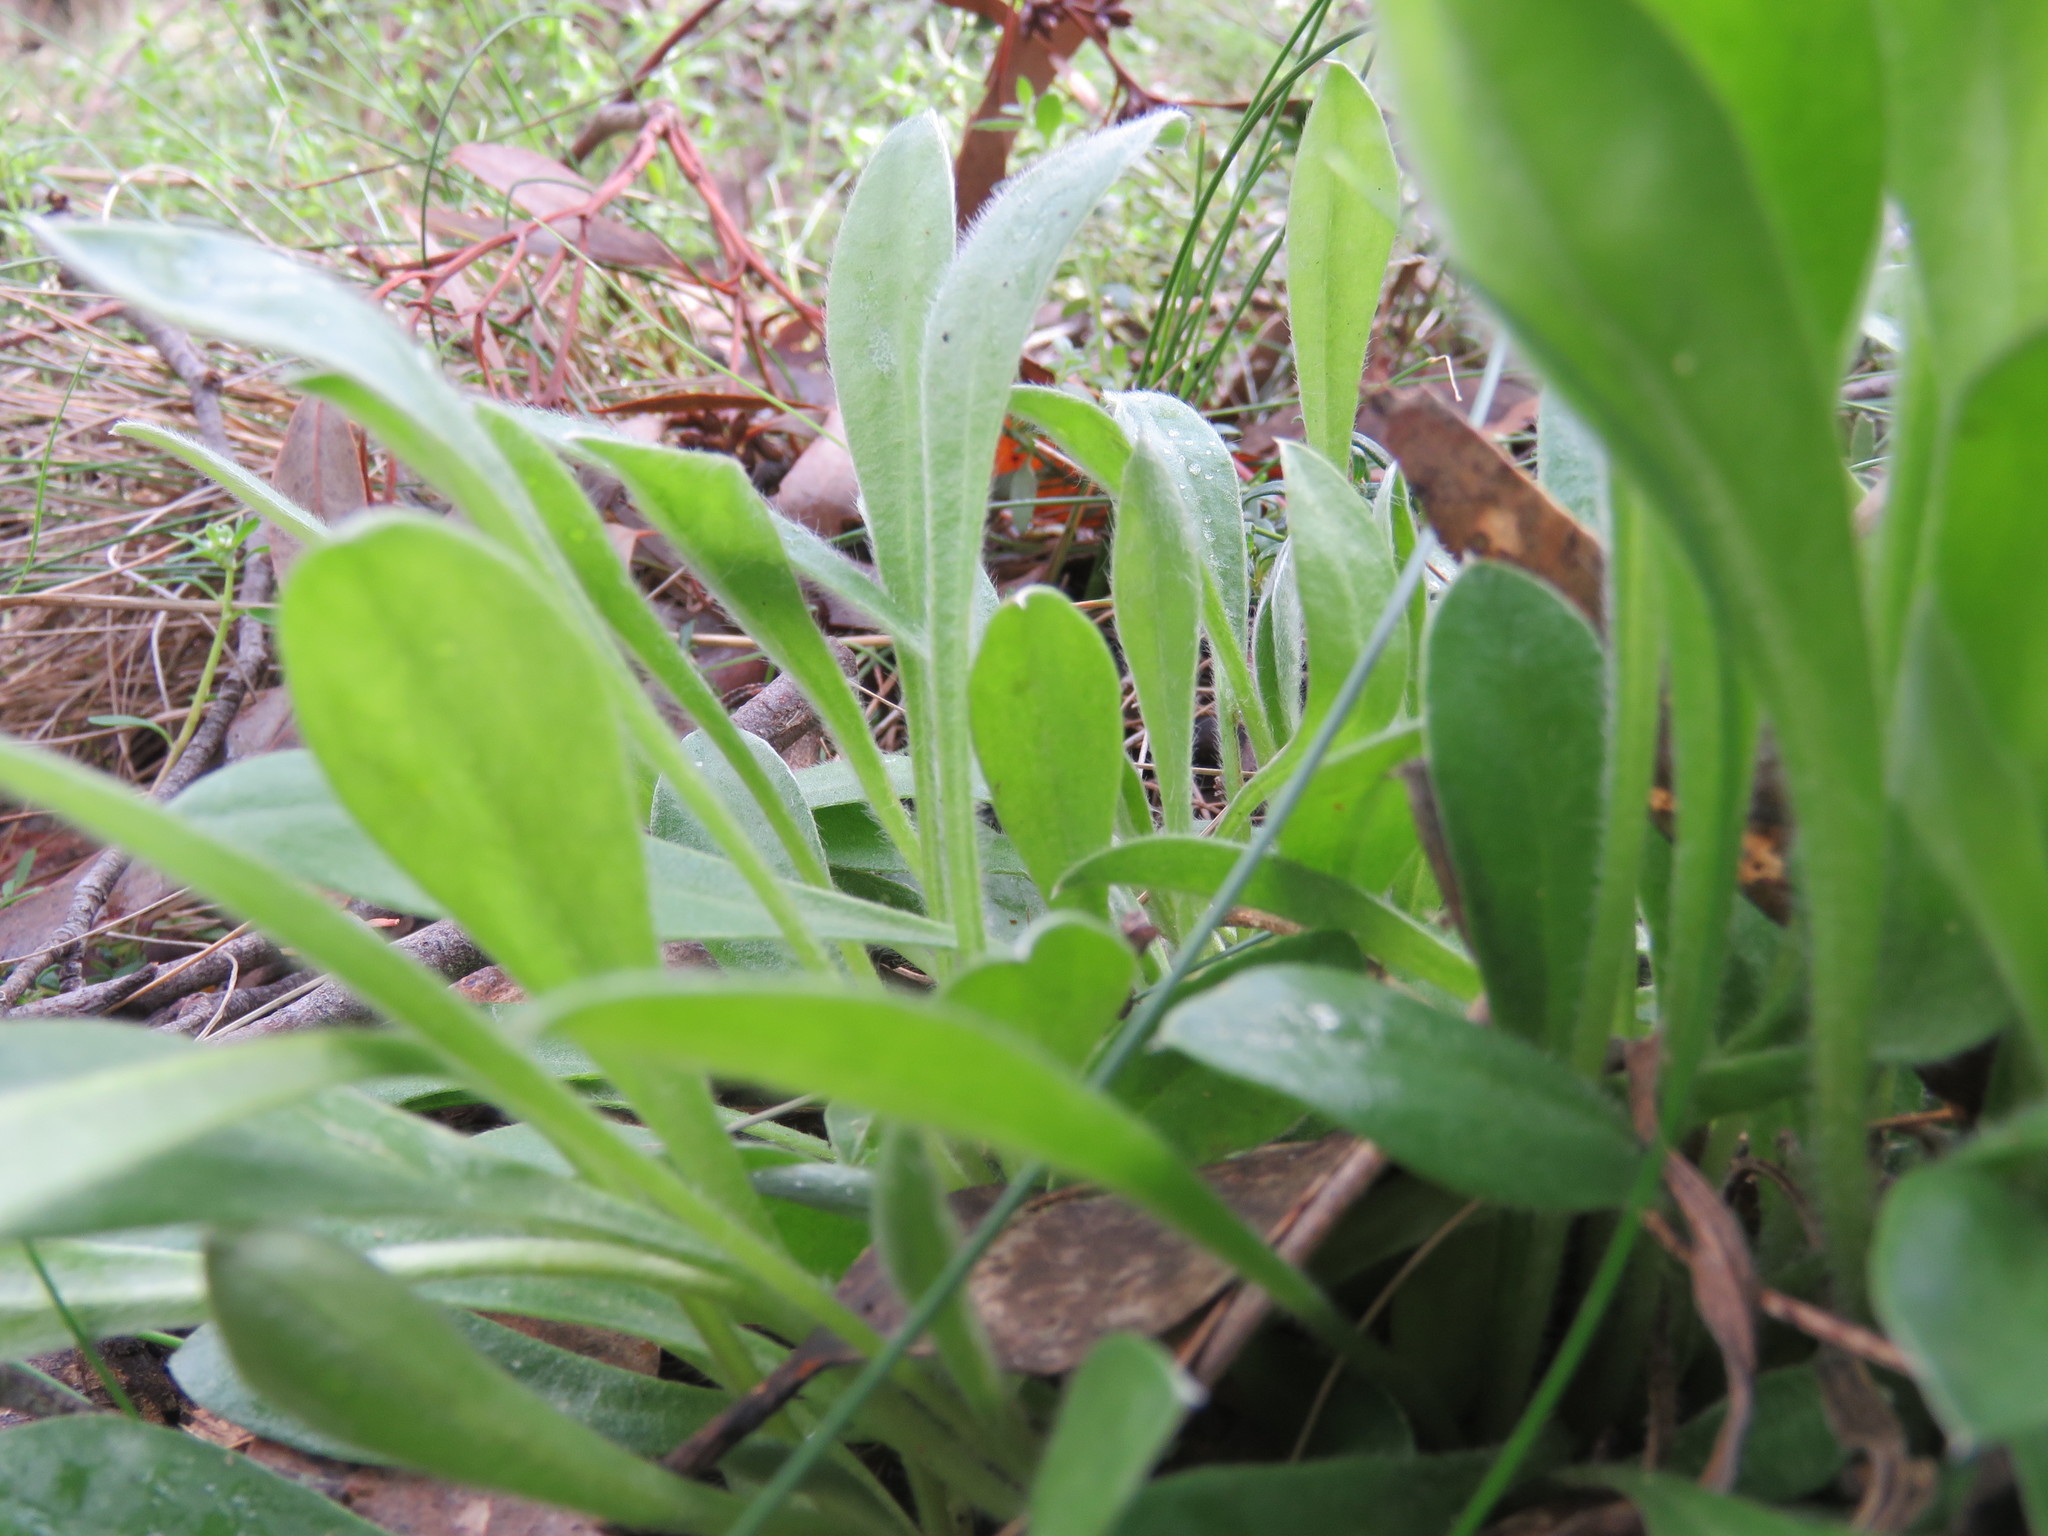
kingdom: Plantae
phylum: Tracheophyta
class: Magnoliopsida
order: Asterales
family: Goodeniaceae
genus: Brunonia
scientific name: Brunonia australis
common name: Blue pincushion
